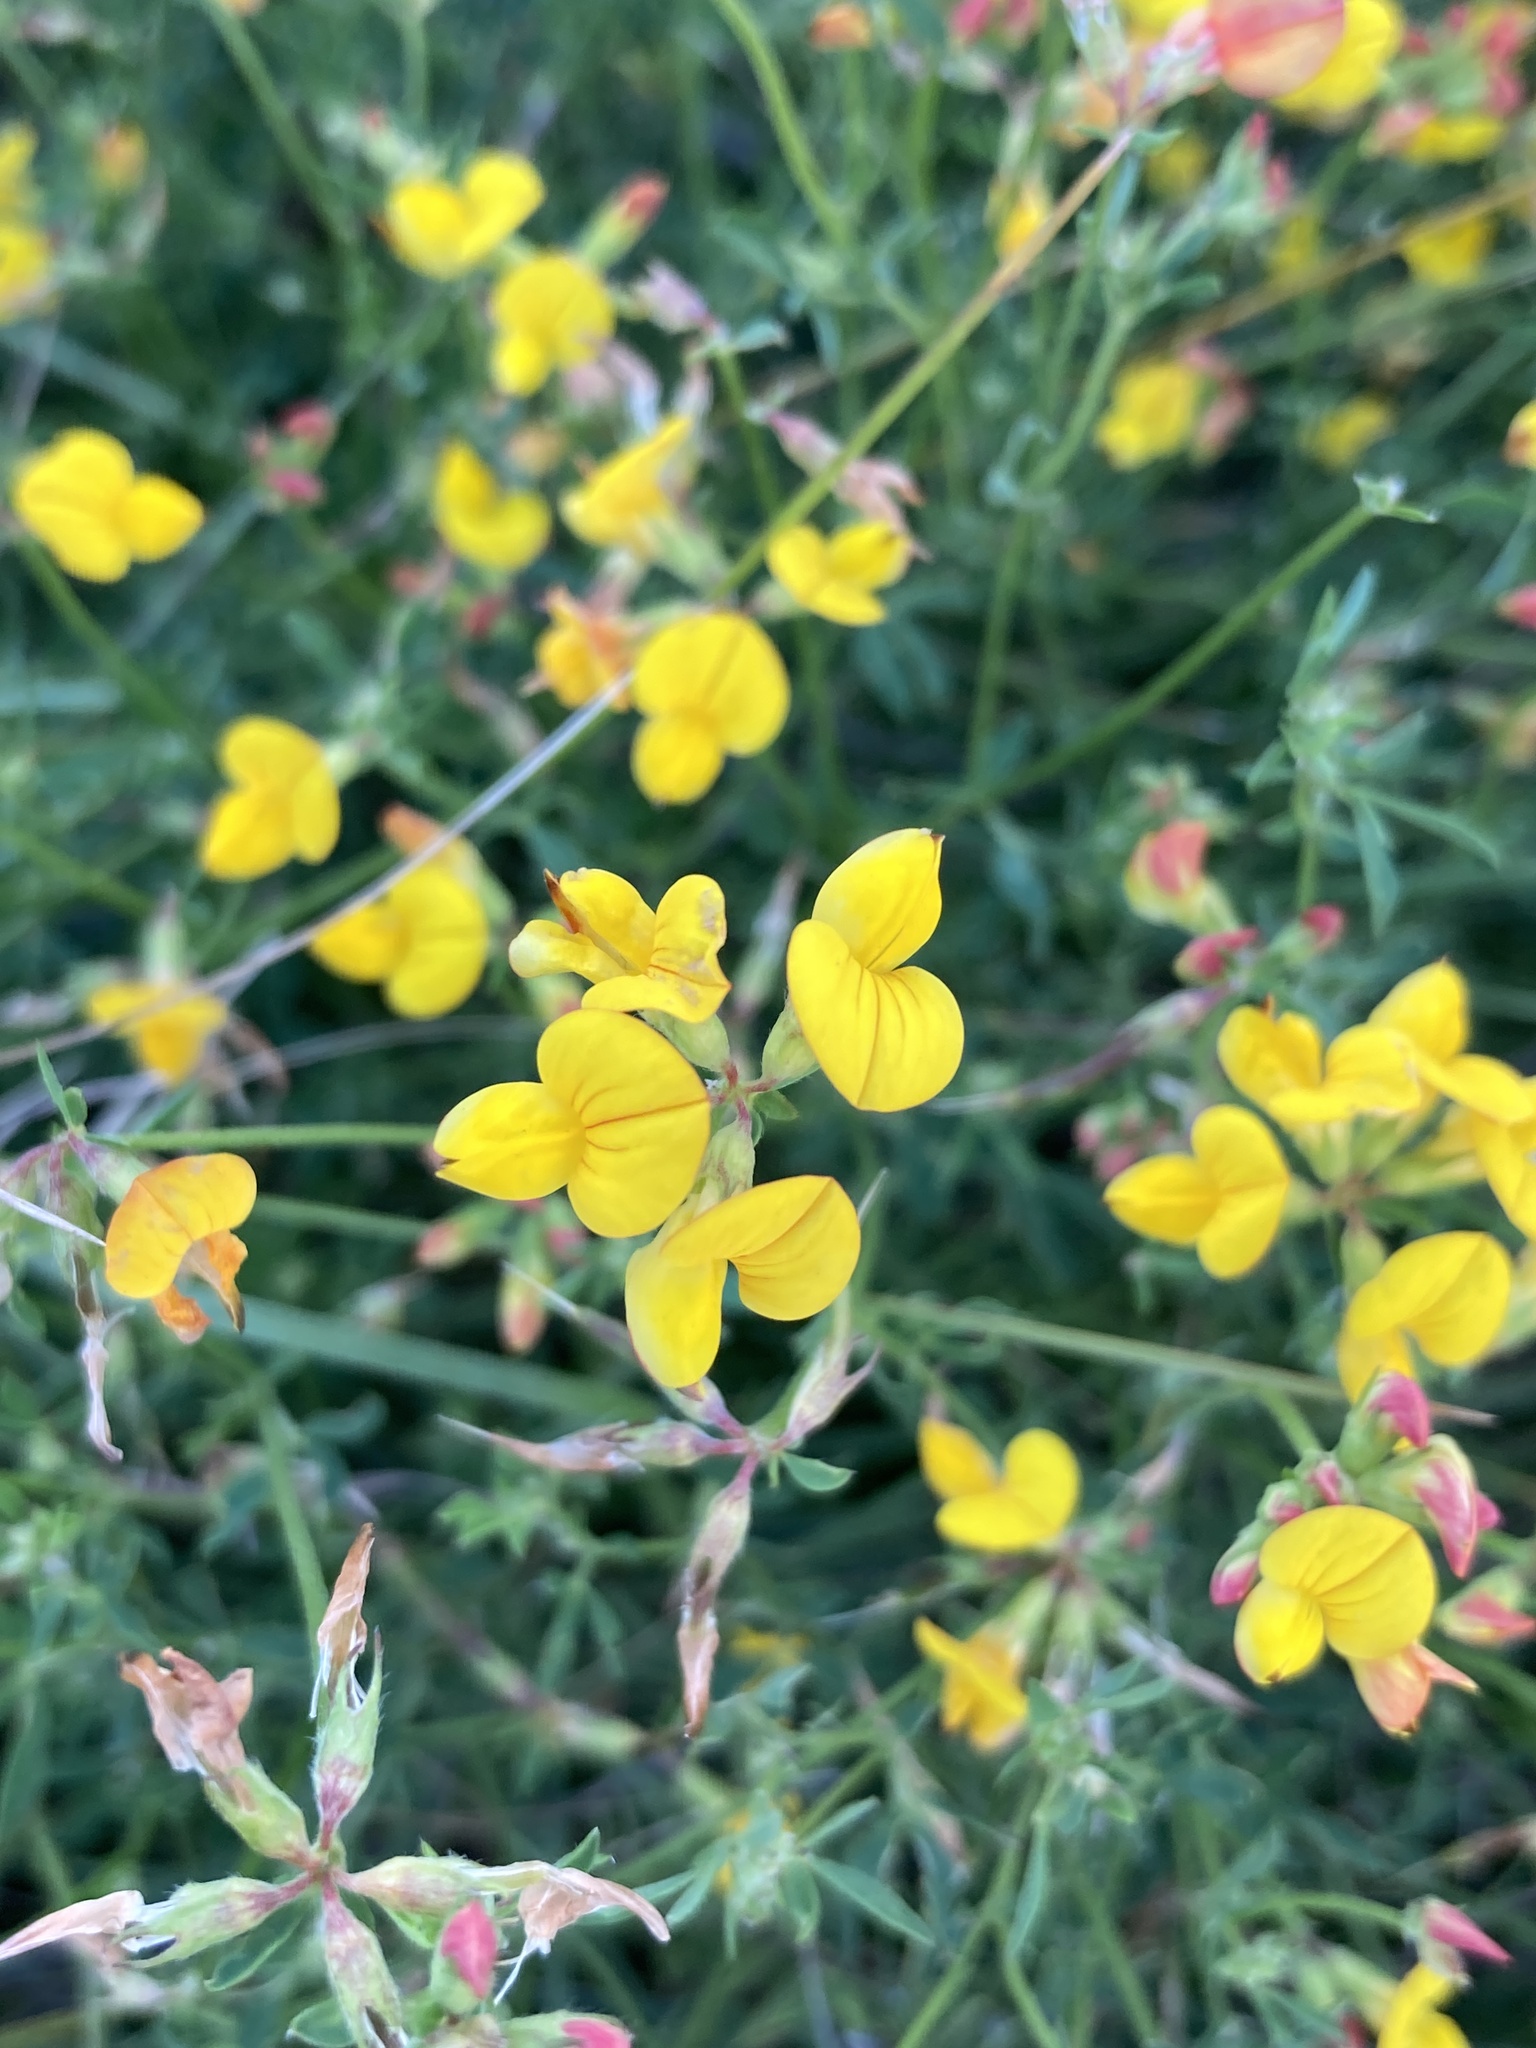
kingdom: Plantae
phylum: Tracheophyta
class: Magnoliopsida
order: Fabales
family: Fabaceae
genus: Lotus
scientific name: Lotus corniculatus
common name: Common bird's-foot-trefoil
